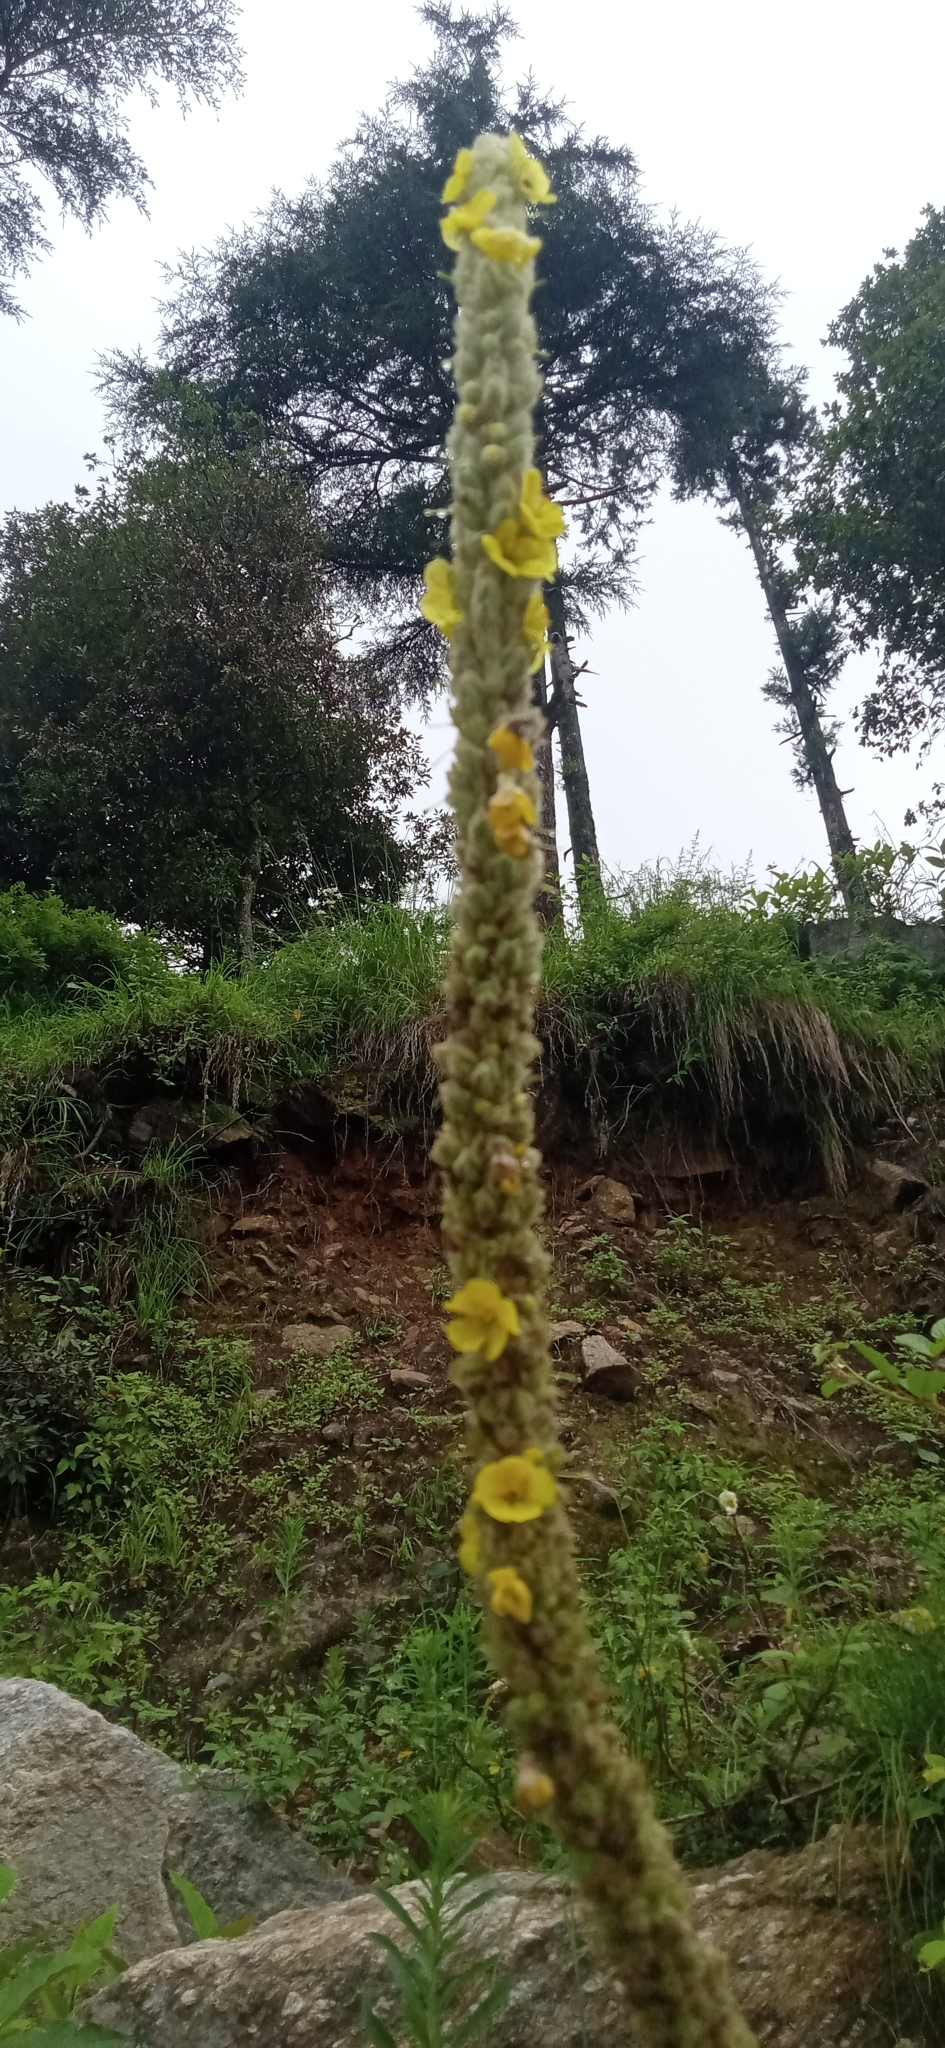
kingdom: Plantae
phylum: Tracheophyta
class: Magnoliopsida
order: Lamiales
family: Scrophulariaceae
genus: Verbascum
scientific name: Verbascum thapsus
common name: Common mullein
